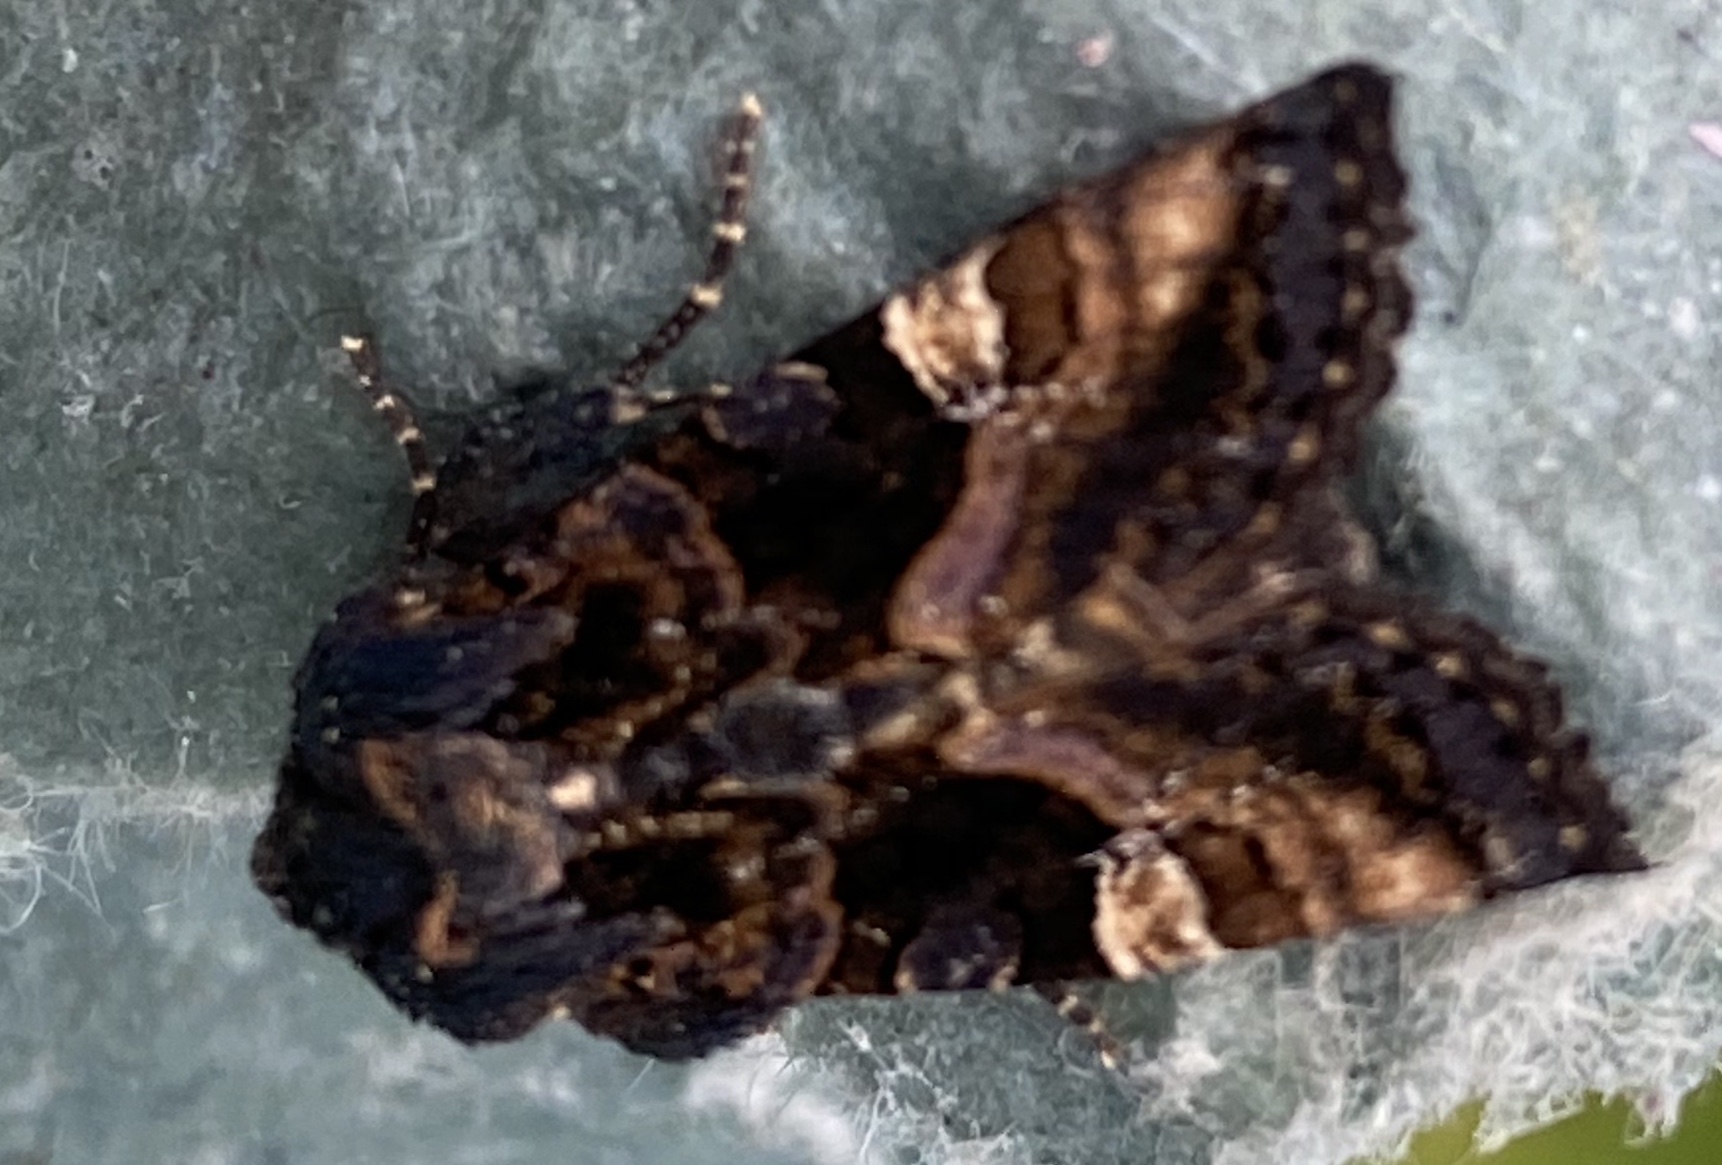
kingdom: Animalia
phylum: Arthropoda
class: Insecta
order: Lepidoptera
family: Noctuidae
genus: Euplexia
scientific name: Euplexia lucipara
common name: Small angle shades
